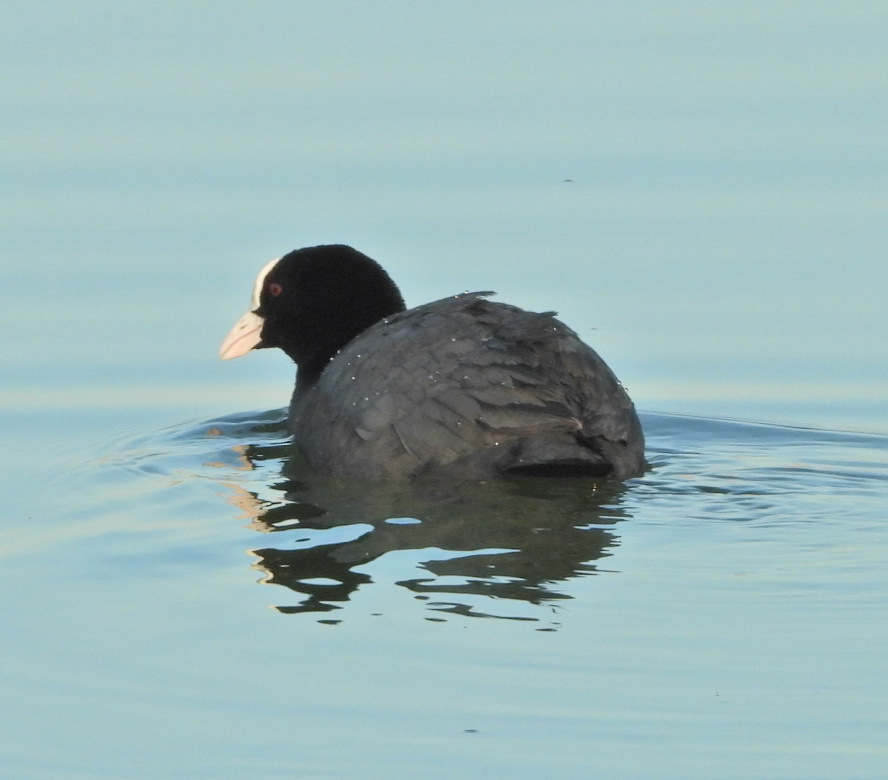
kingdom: Animalia
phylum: Chordata
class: Aves
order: Gruiformes
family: Rallidae
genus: Fulica
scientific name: Fulica atra
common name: Eurasian coot
